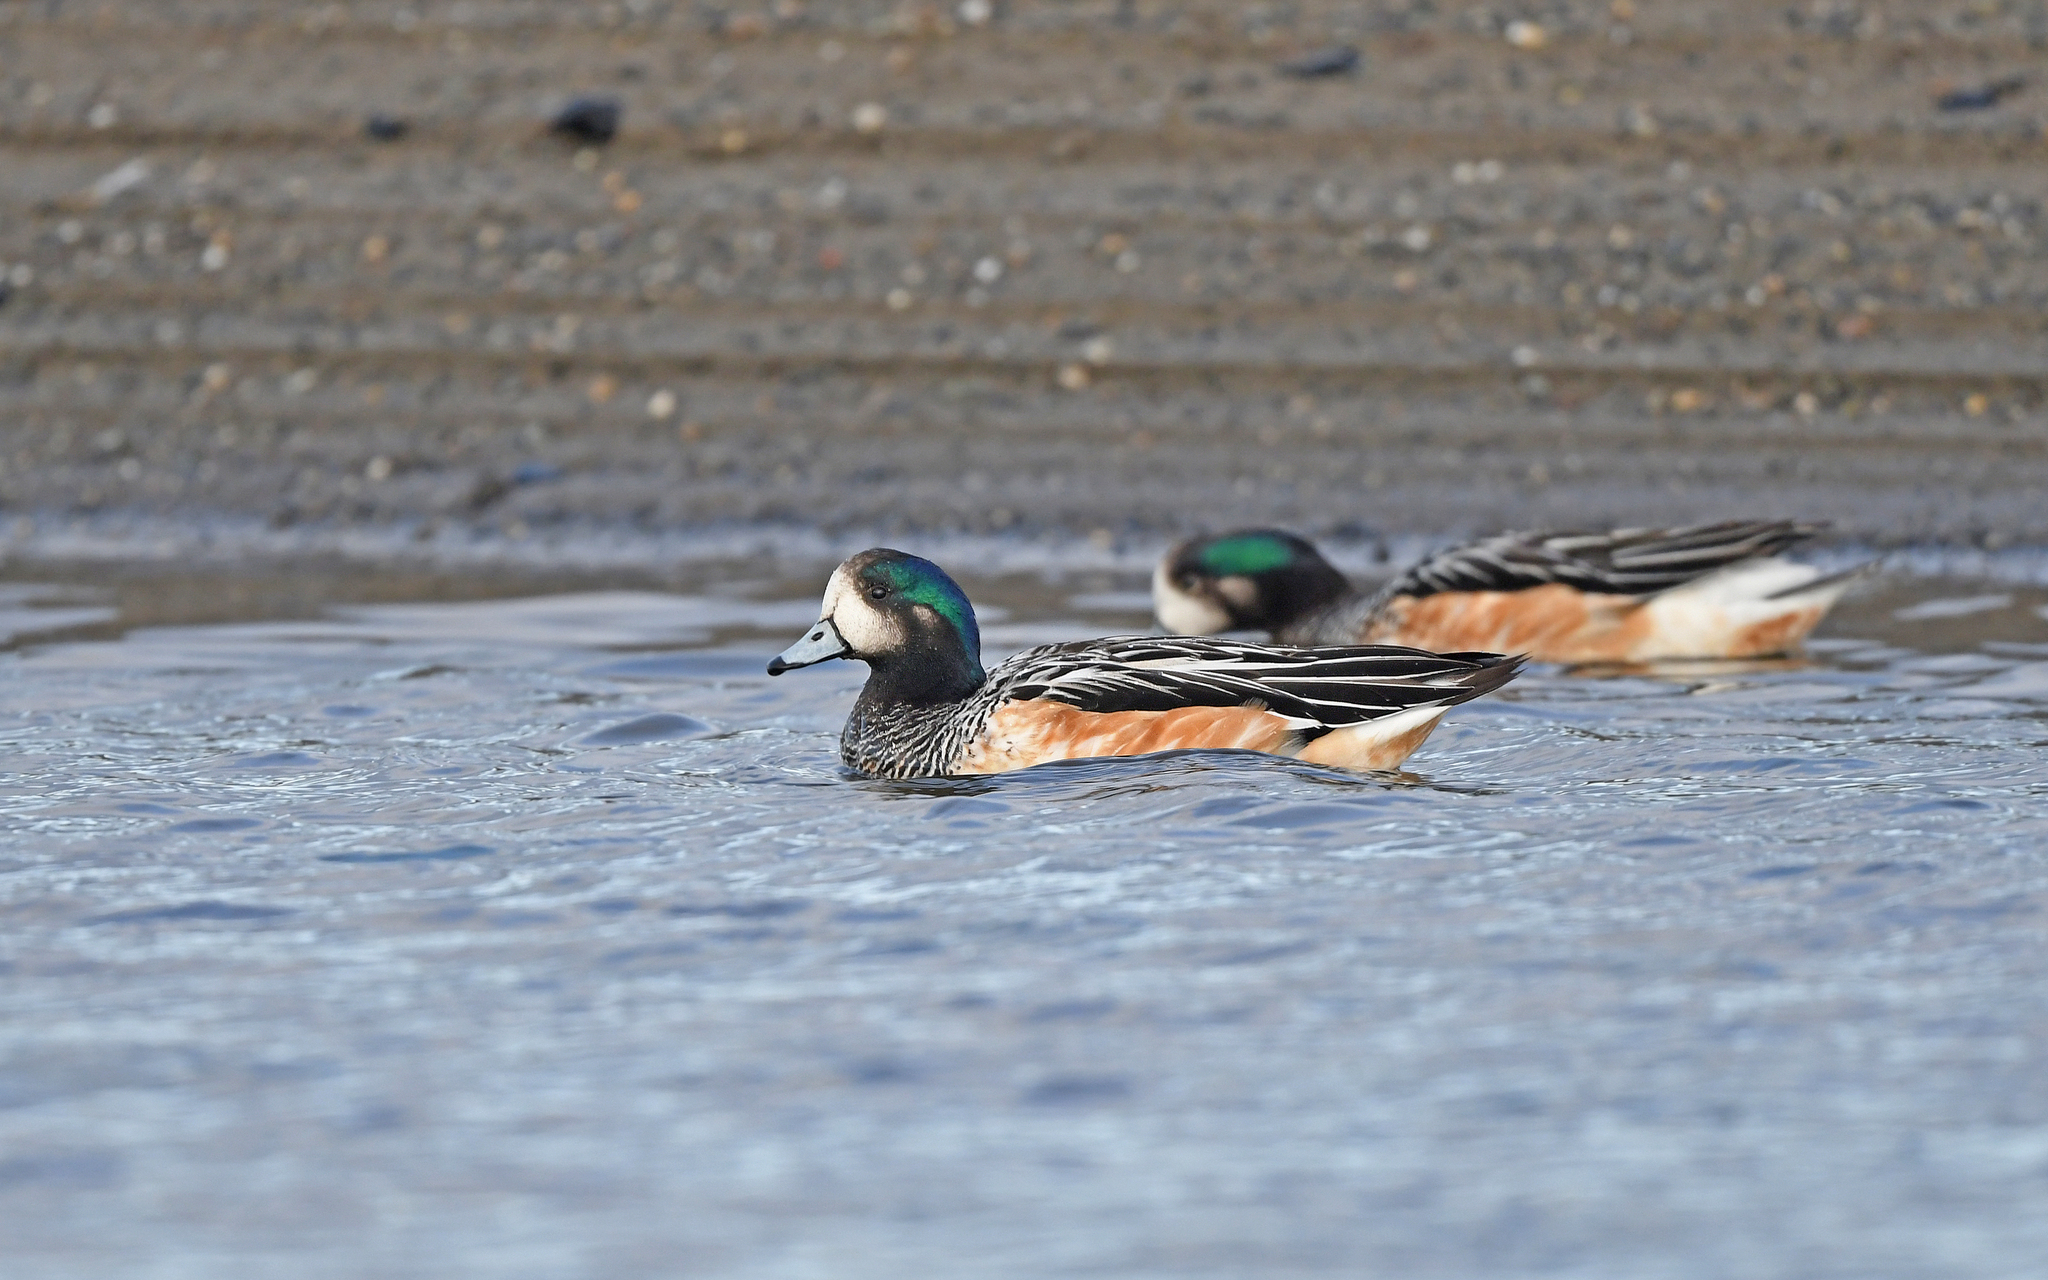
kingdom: Animalia
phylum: Chordata
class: Aves
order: Anseriformes
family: Anatidae
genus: Mareca
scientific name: Mareca sibilatrix
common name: Chiloe wigeon
